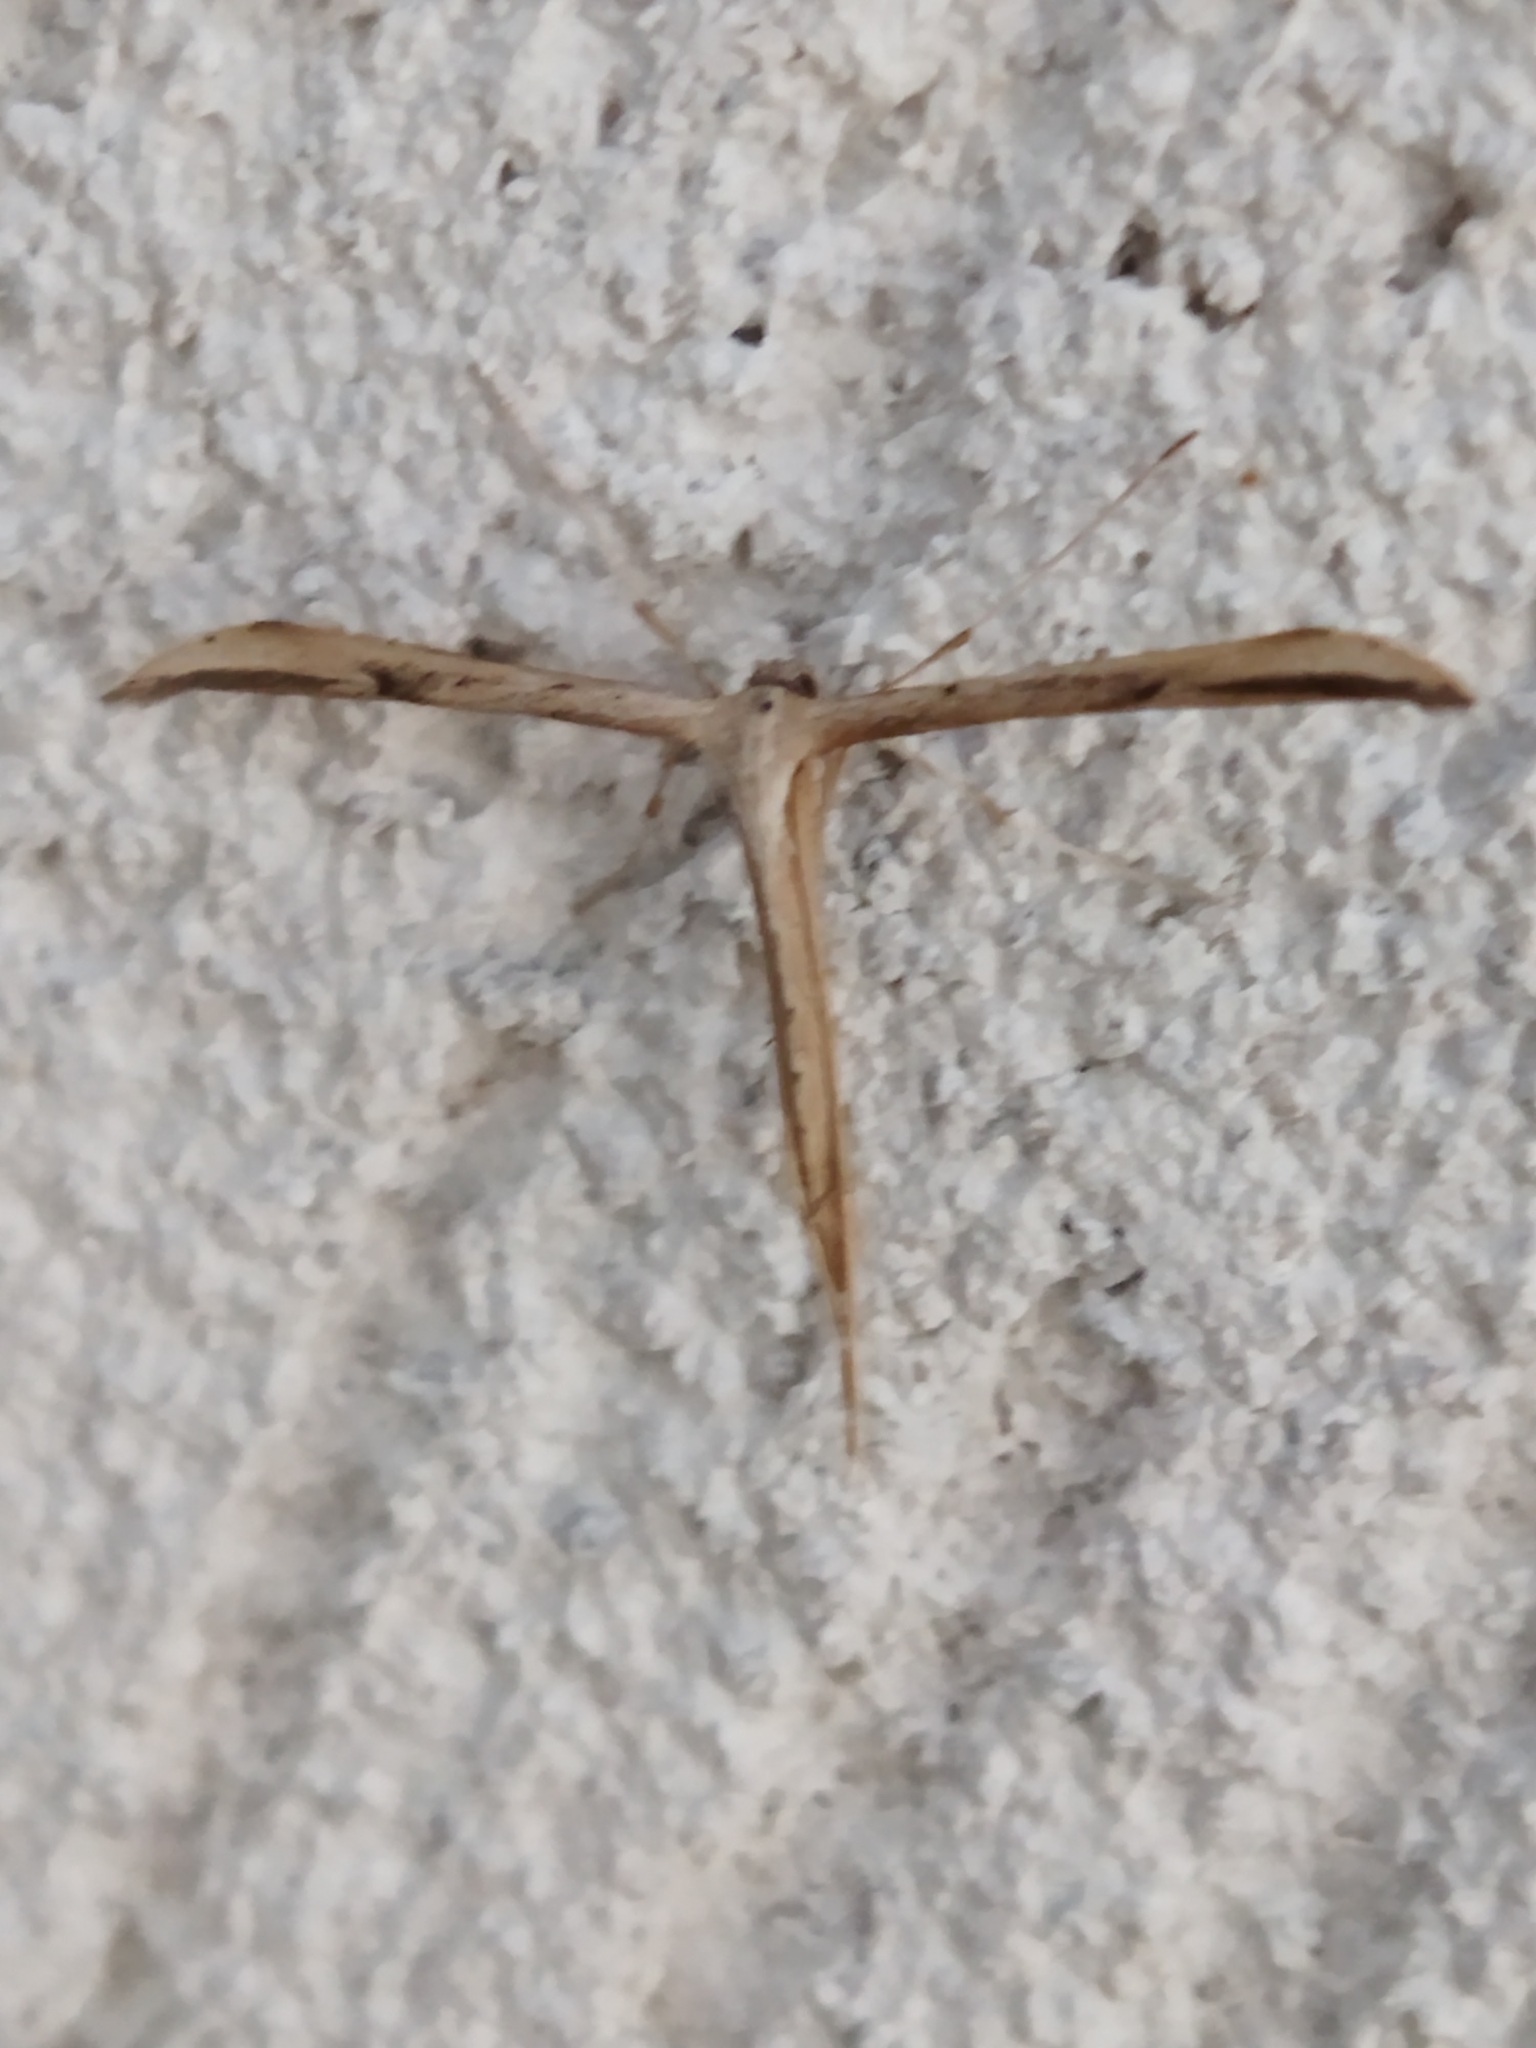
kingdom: Animalia
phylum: Arthropoda
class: Insecta
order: Lepidoptera
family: Pterophoridae
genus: Emmelina
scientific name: Emmelina monodactyla
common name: Common plume
